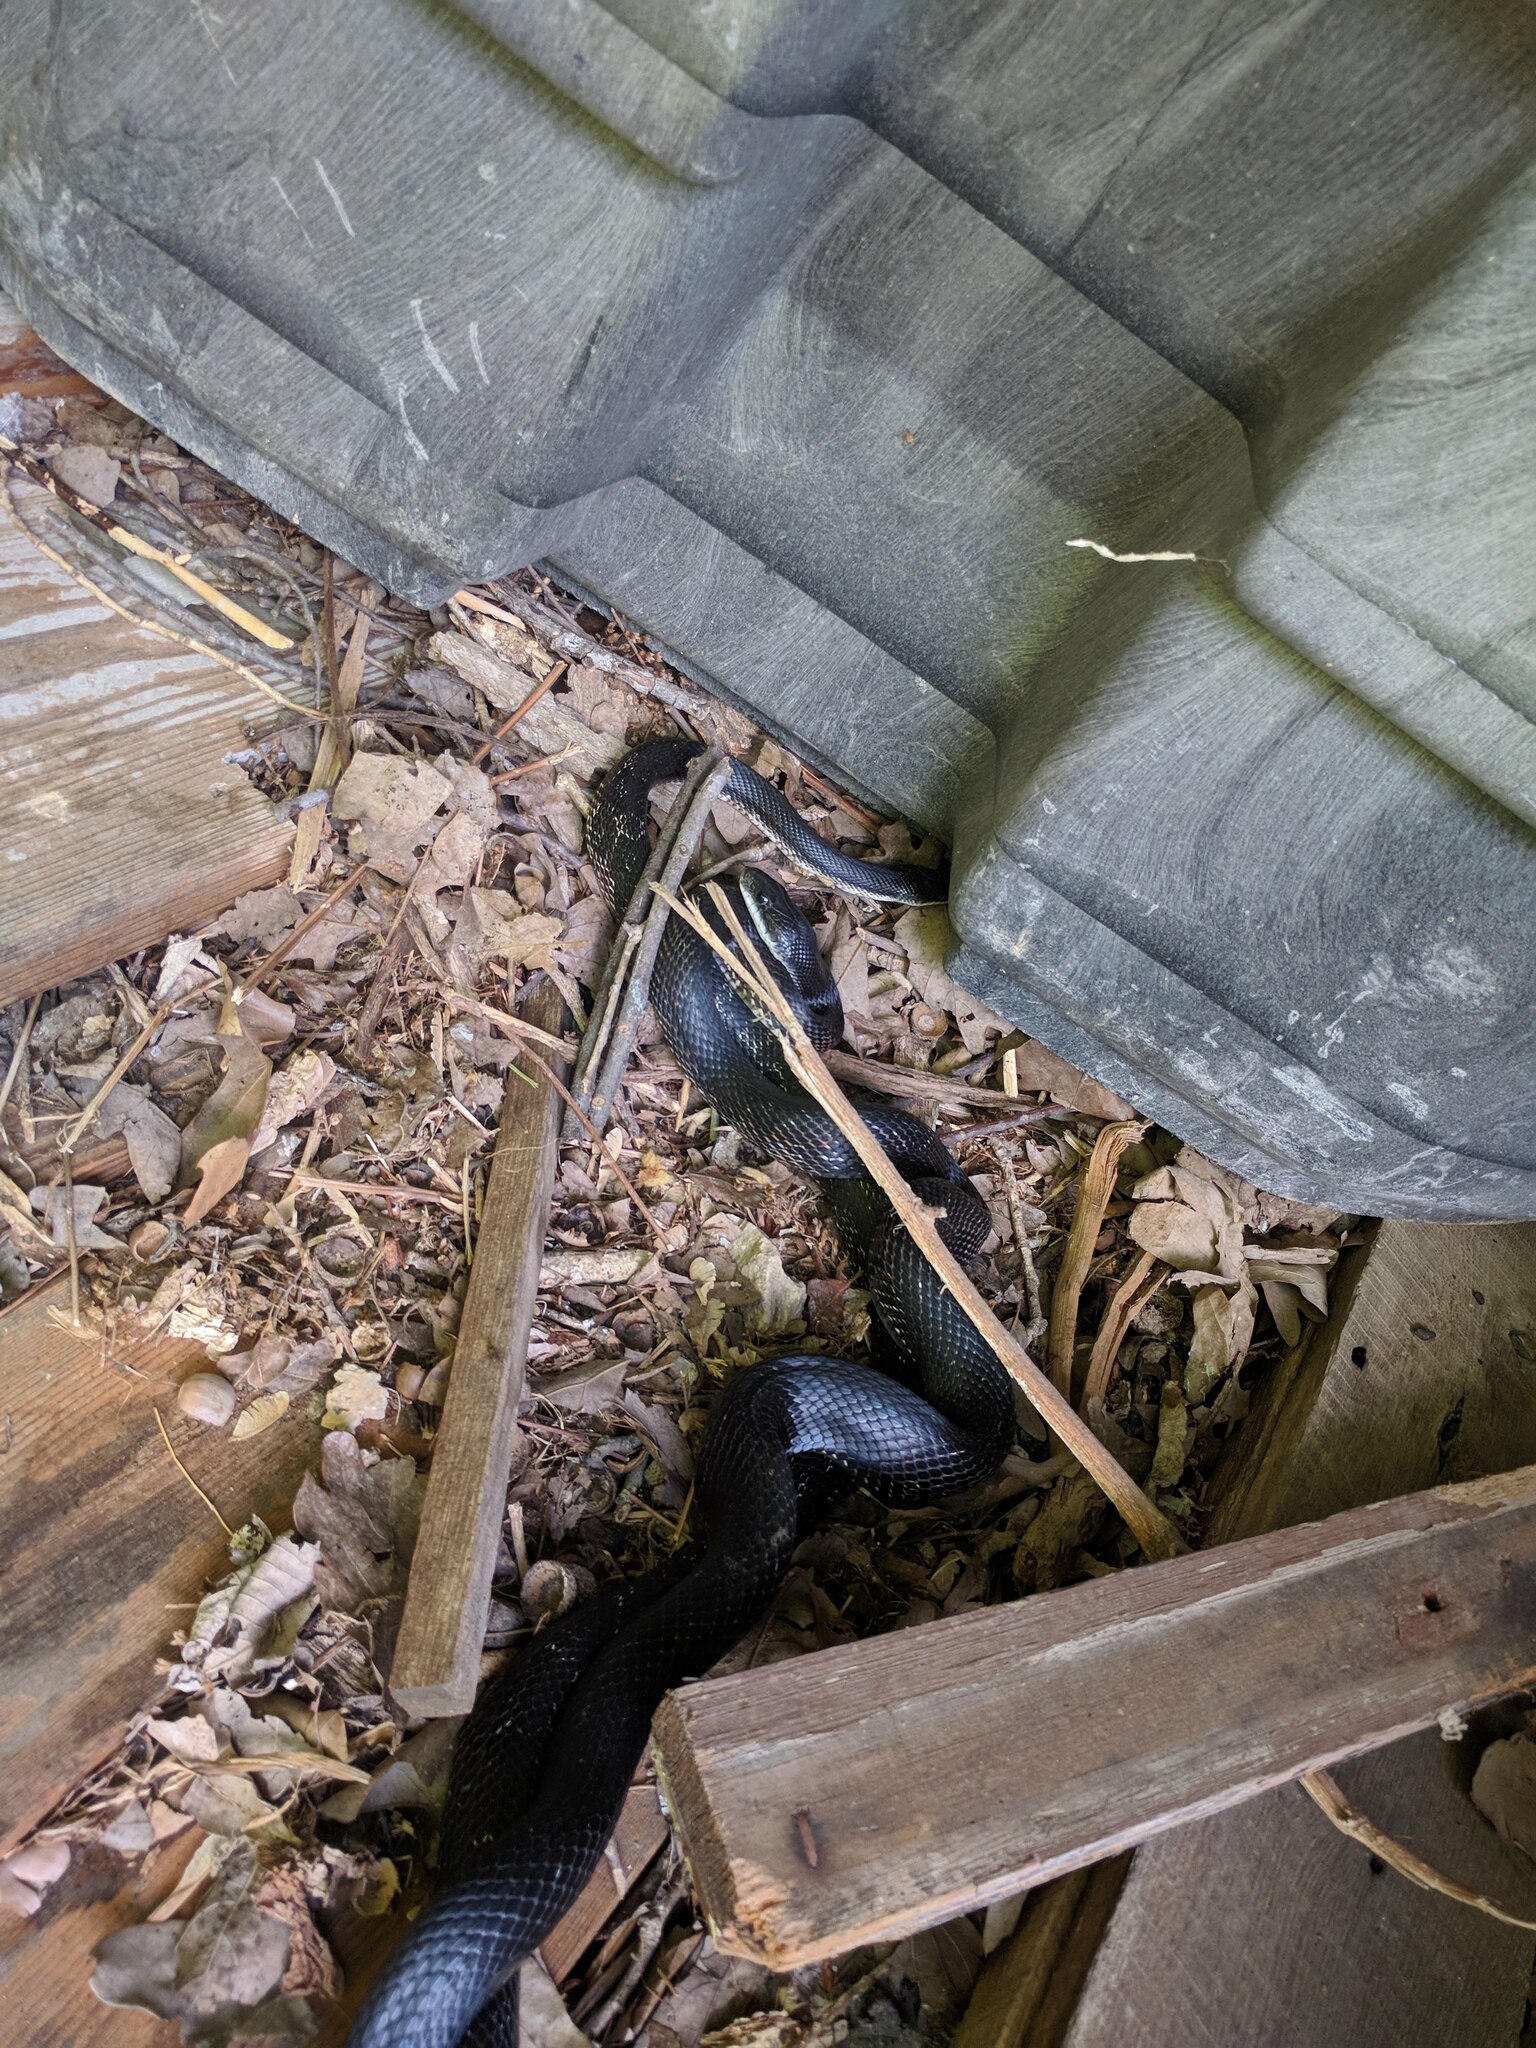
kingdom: Animalia
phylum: Chordata
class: Squamata
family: Colubridae
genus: Pantherophis
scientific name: Pantherophis obsoletus
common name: Black rat snake
